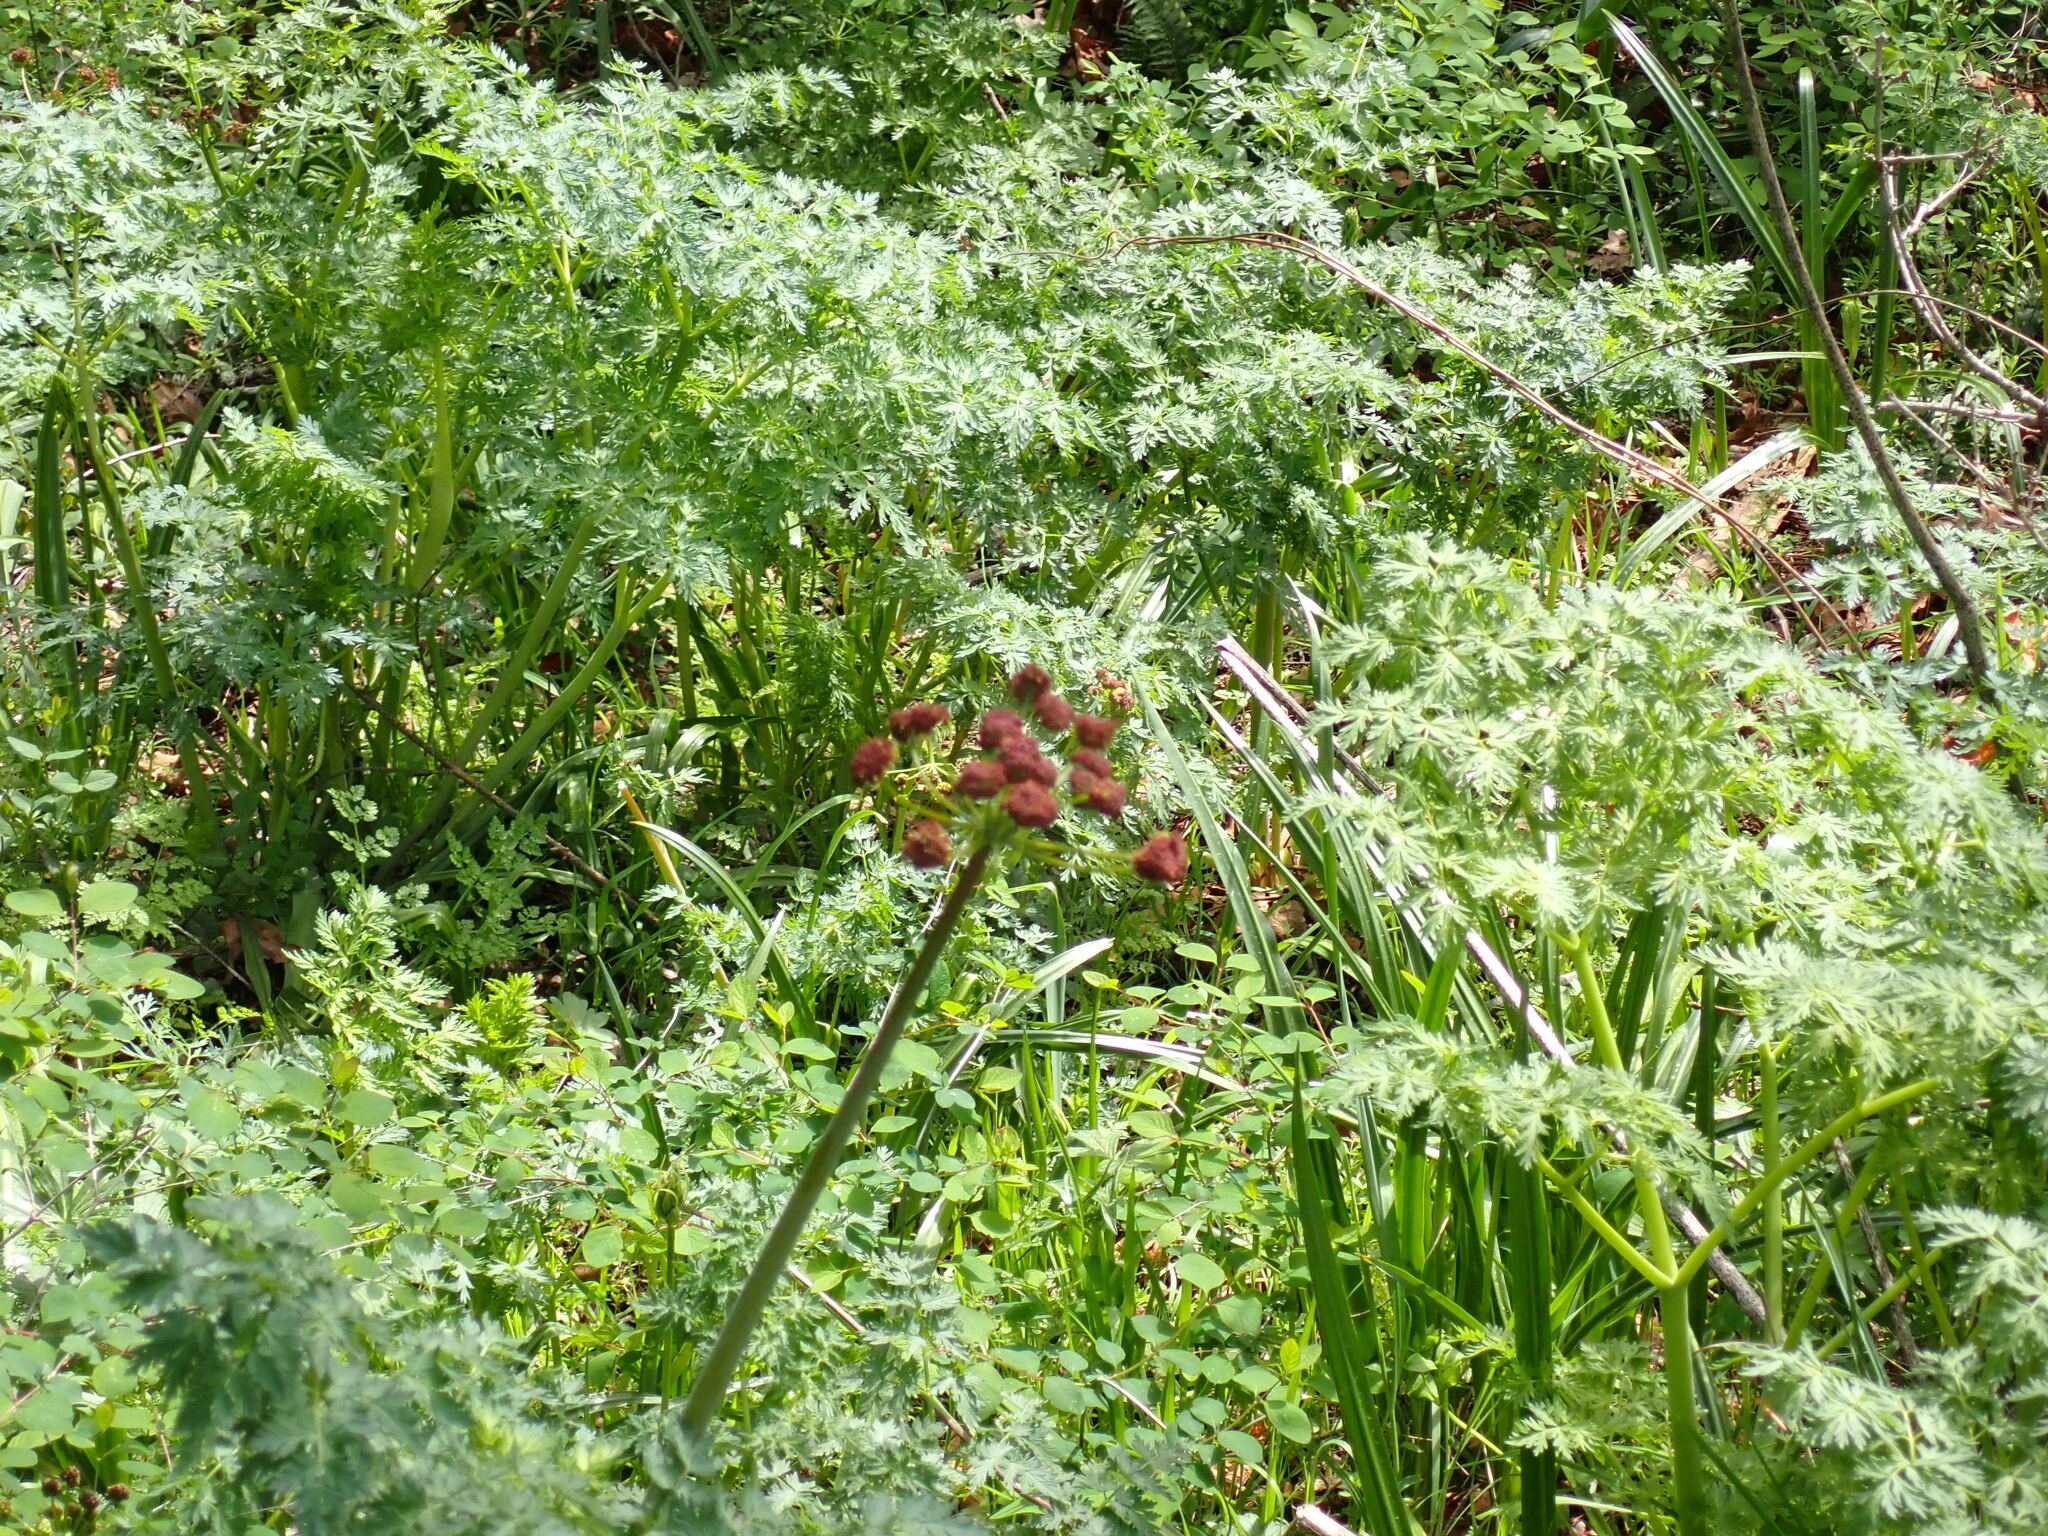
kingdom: Plantae
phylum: Tracheophyta
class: Magnoliopsida
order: Apiales
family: Apiaceae
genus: Lomatium
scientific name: Lomatium dissectum
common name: Lomatium
